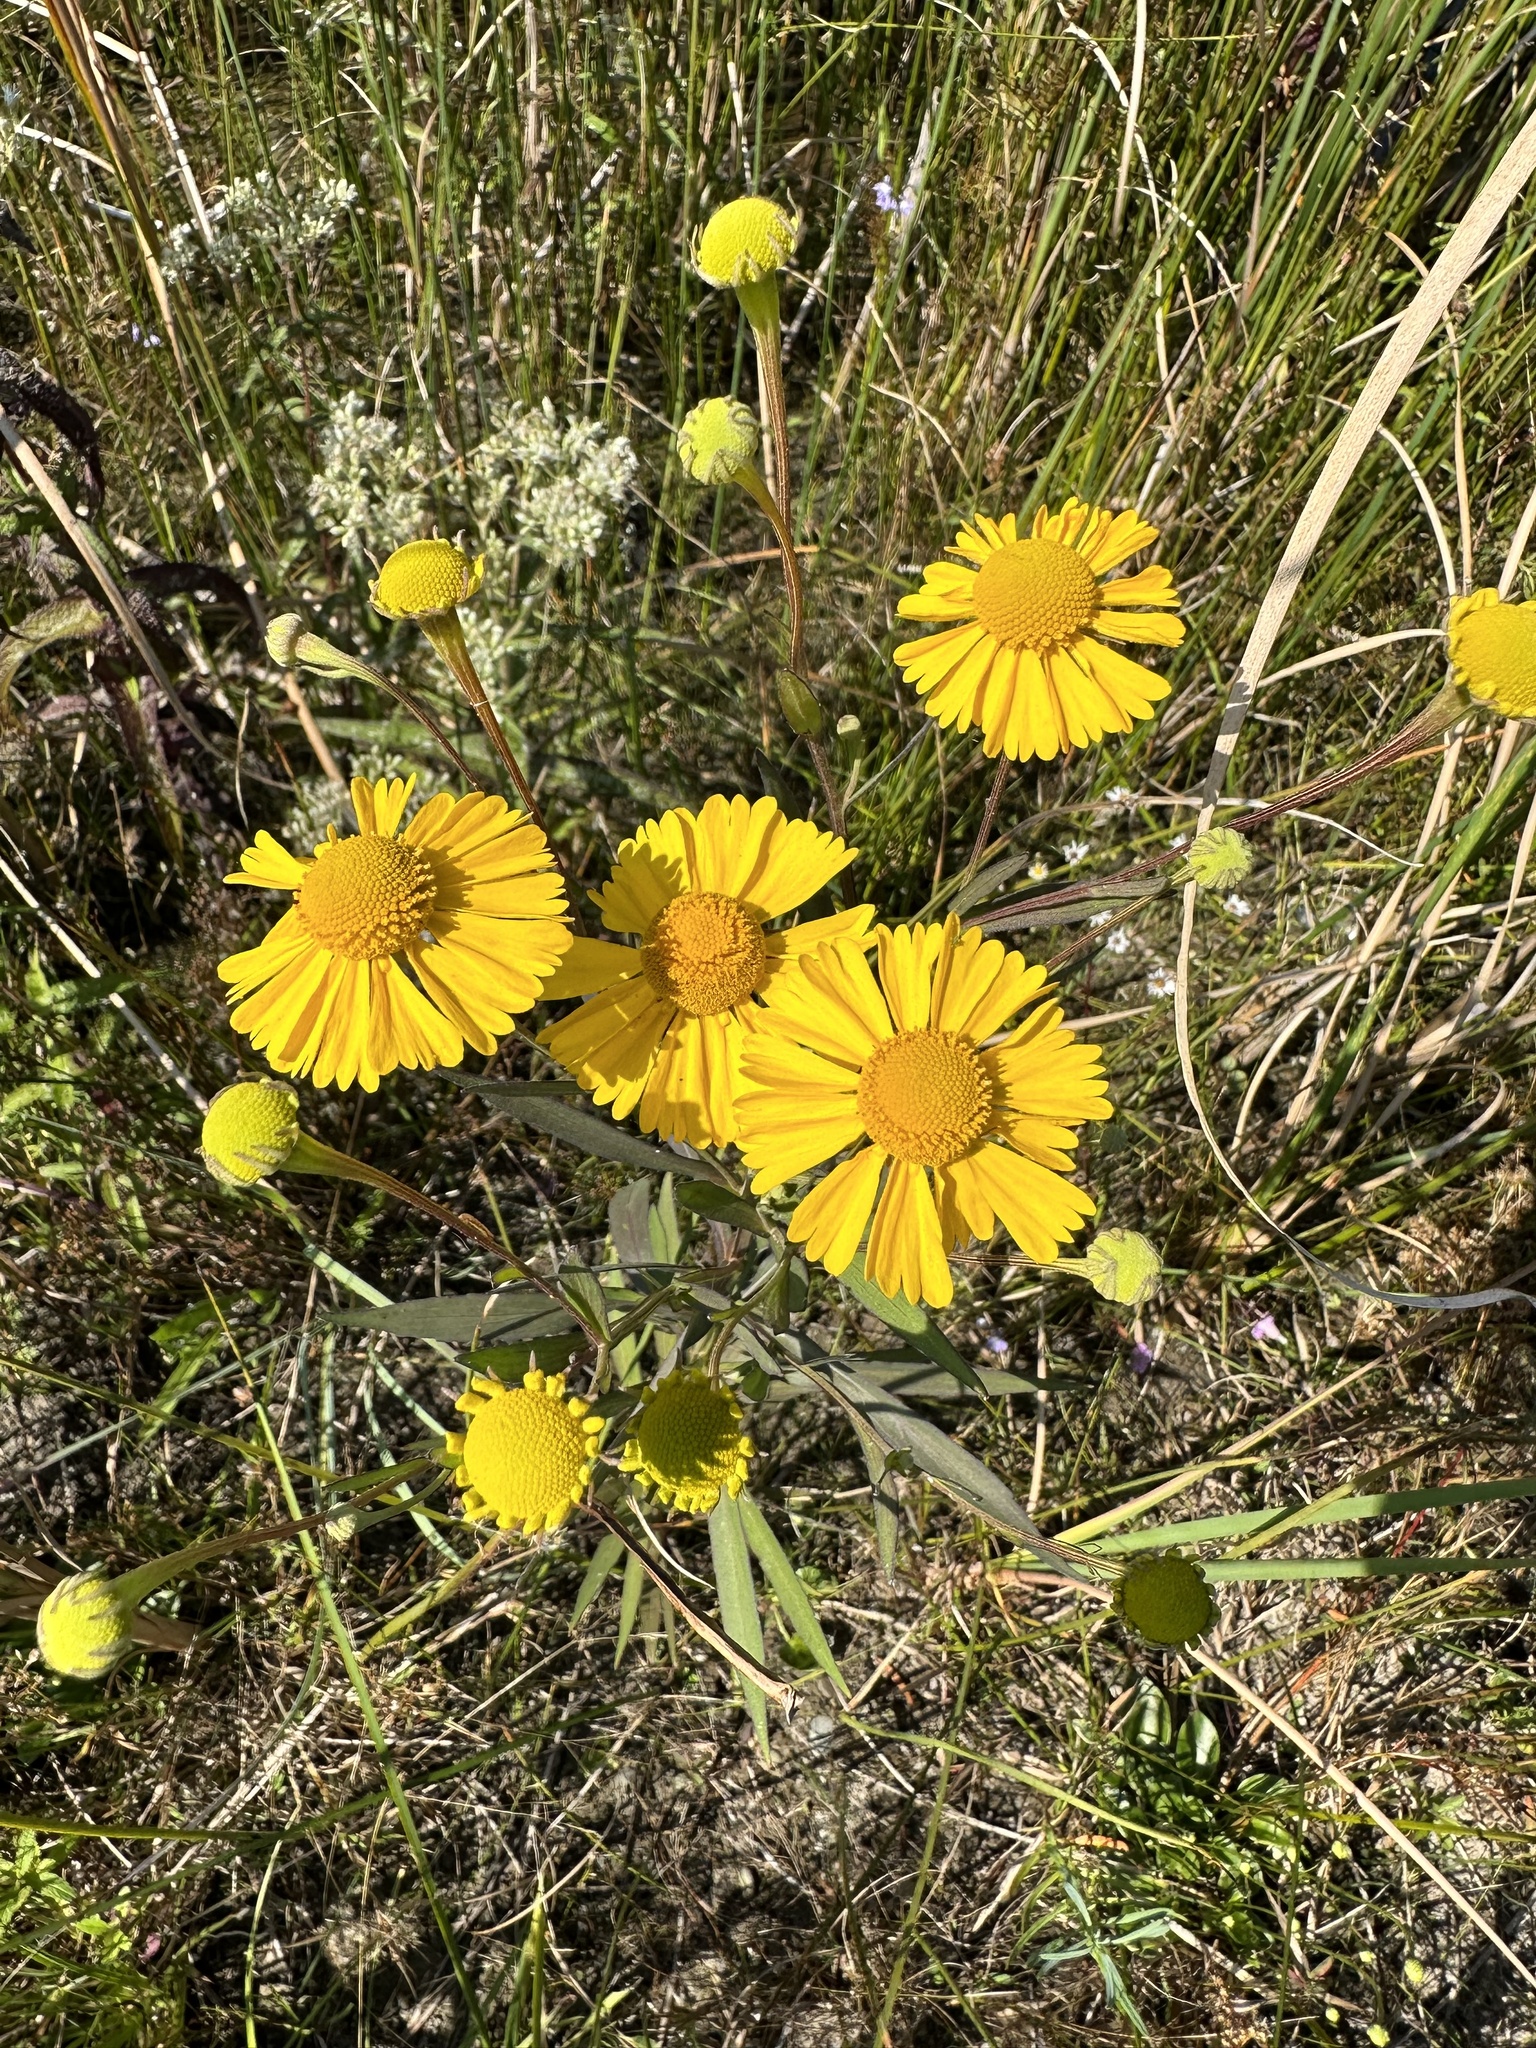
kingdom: Plantae
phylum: Tracheophyta
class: Magnoliopsida
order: Asterales
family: Asteraceae
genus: Helenium
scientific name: Helenium autumnale
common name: Sneezeweed
